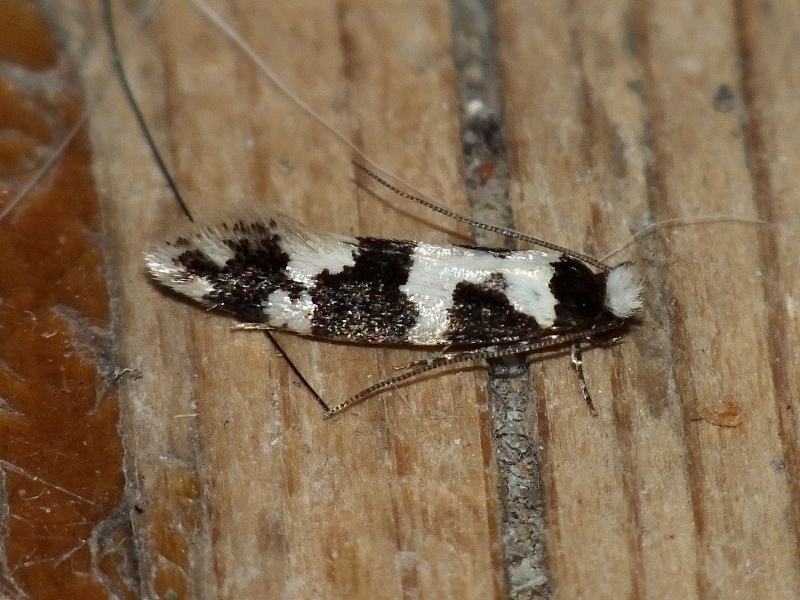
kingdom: Animalia
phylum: Arthropoda
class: Insecta
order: Lepidoptera
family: Tineidae
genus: Neurothaumasia
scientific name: Neurothaumasia ankerella
